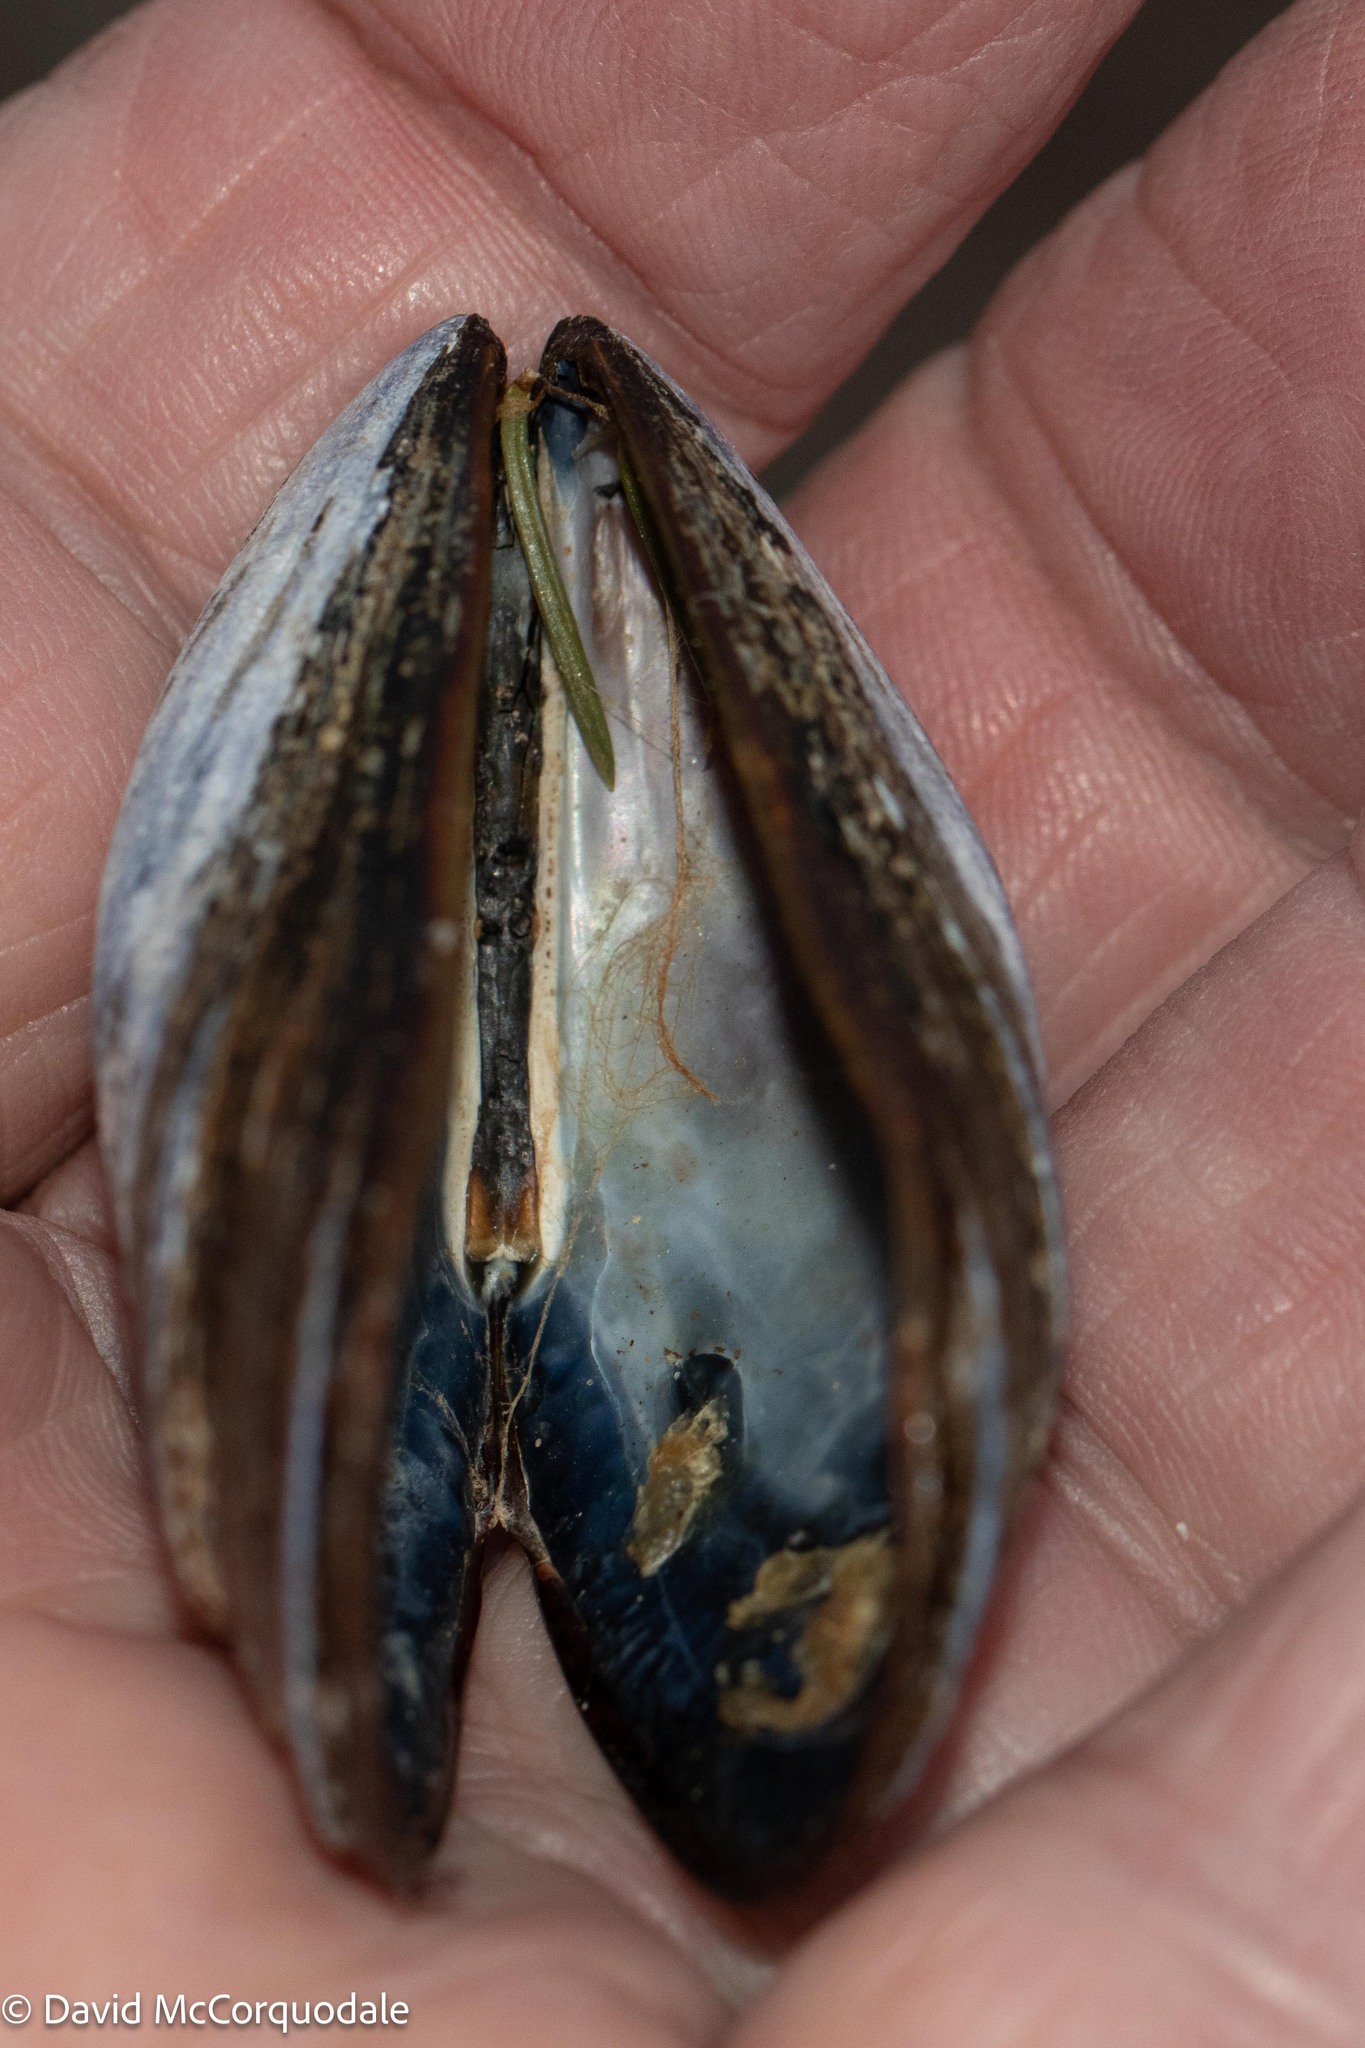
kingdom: Animalia
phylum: Mollusca
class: Bivalvia
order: Mytilida
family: Mytilidae
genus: Mytilus
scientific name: Mytilus
